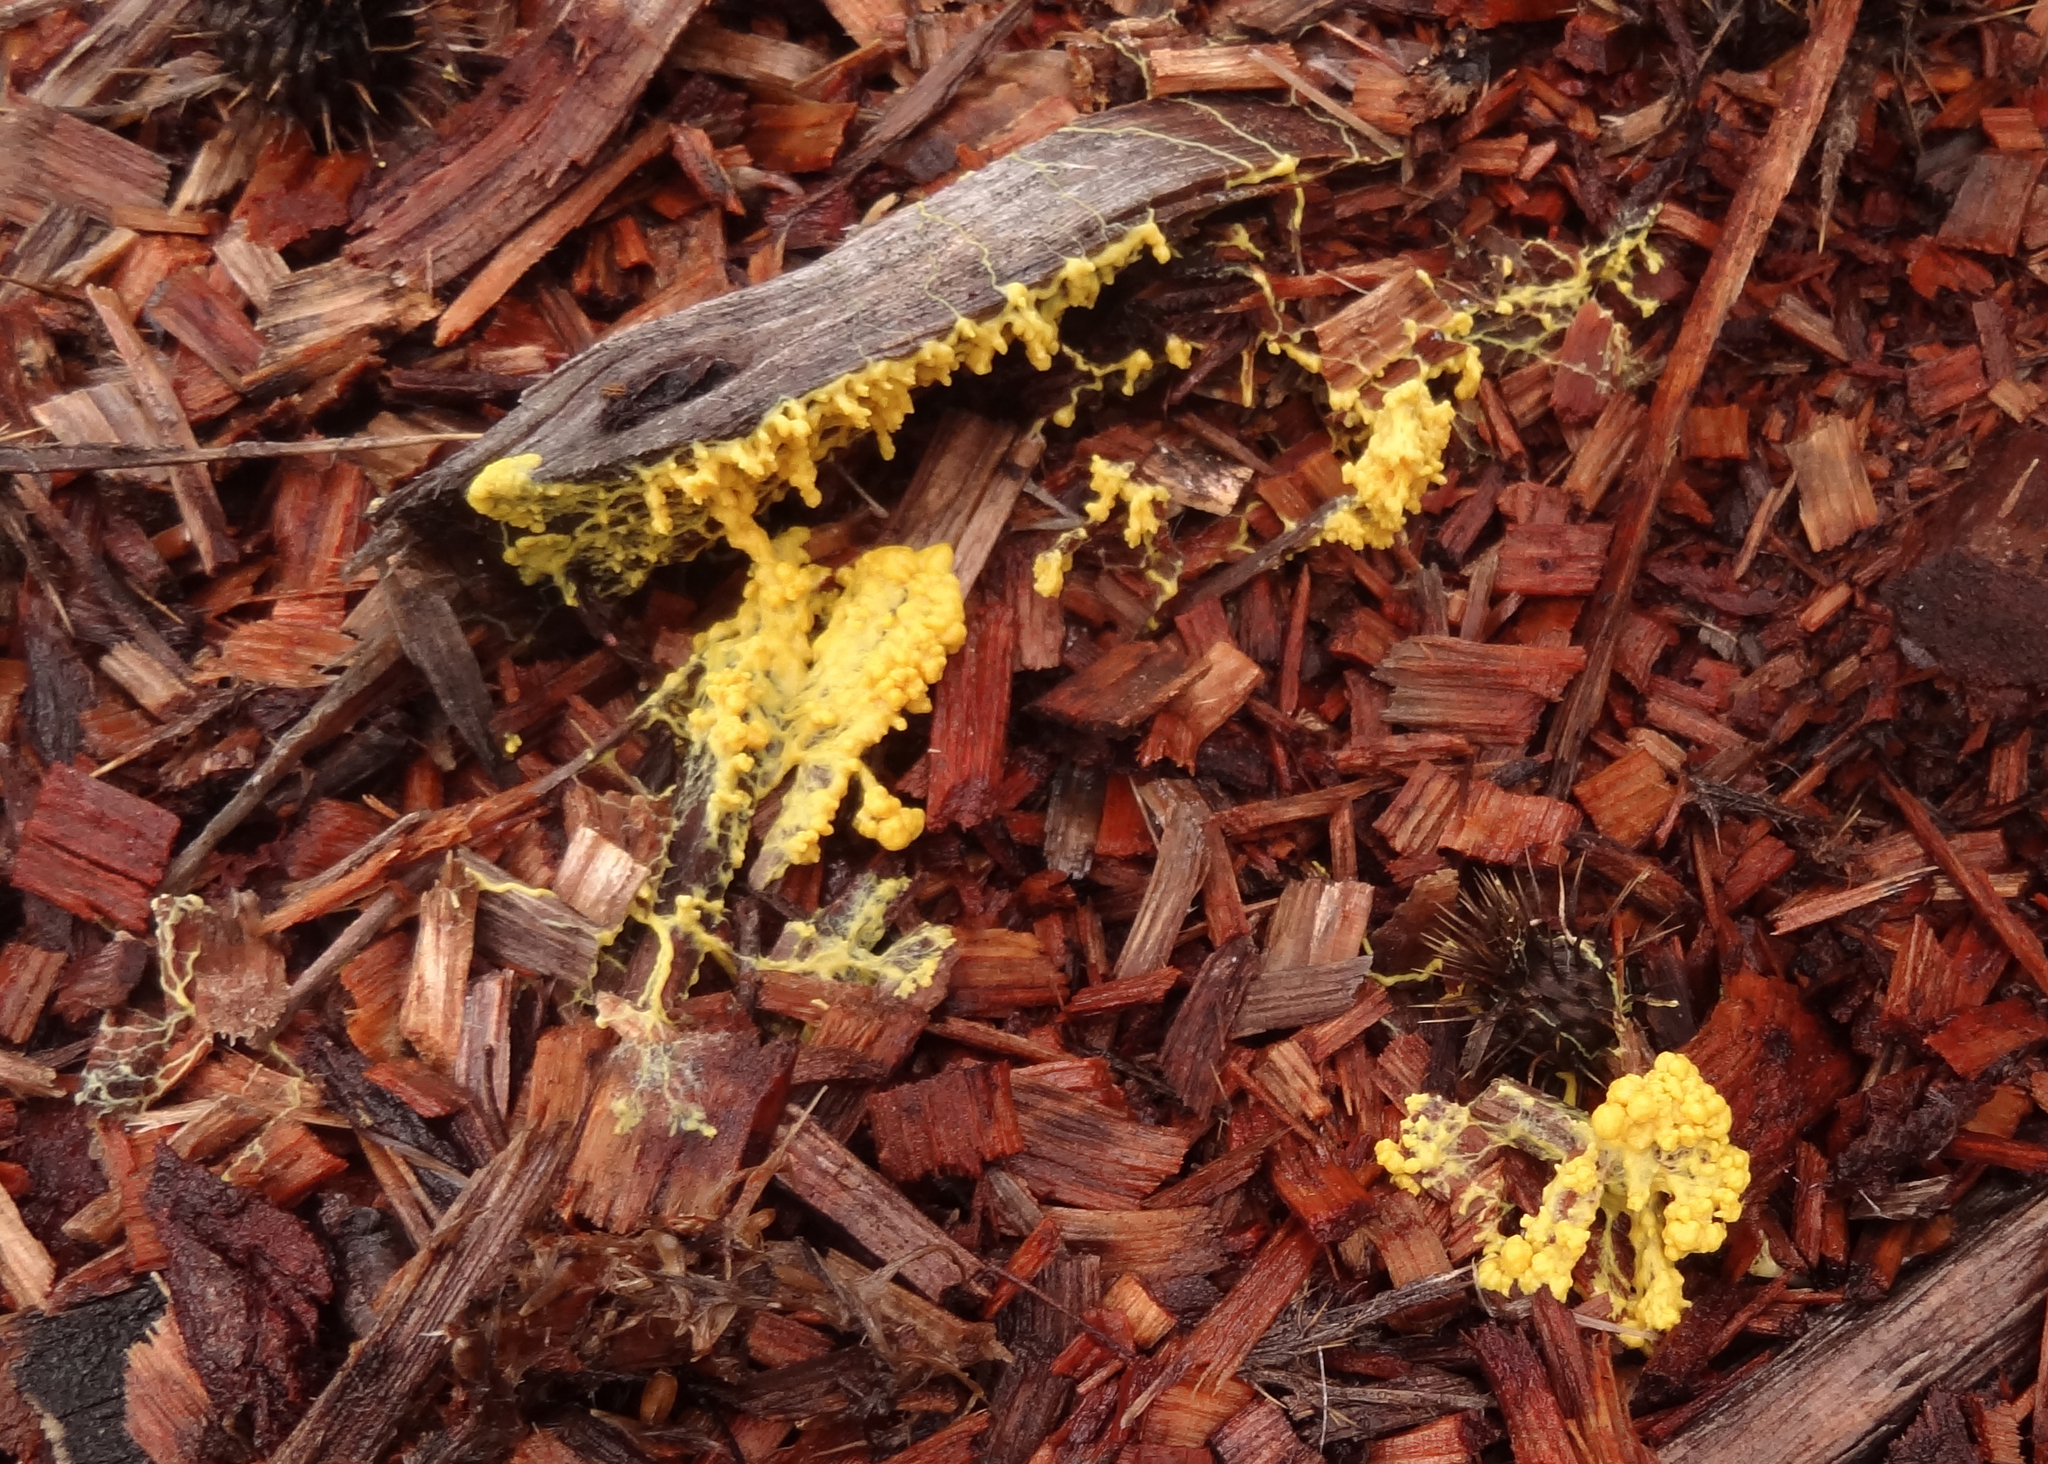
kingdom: Protozoa
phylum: Mycetozoa
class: Myxomycetes
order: Physarales
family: Physaraceae
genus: Leocarpus
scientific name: Leocarpus fragilis
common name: Insect-egg slime
